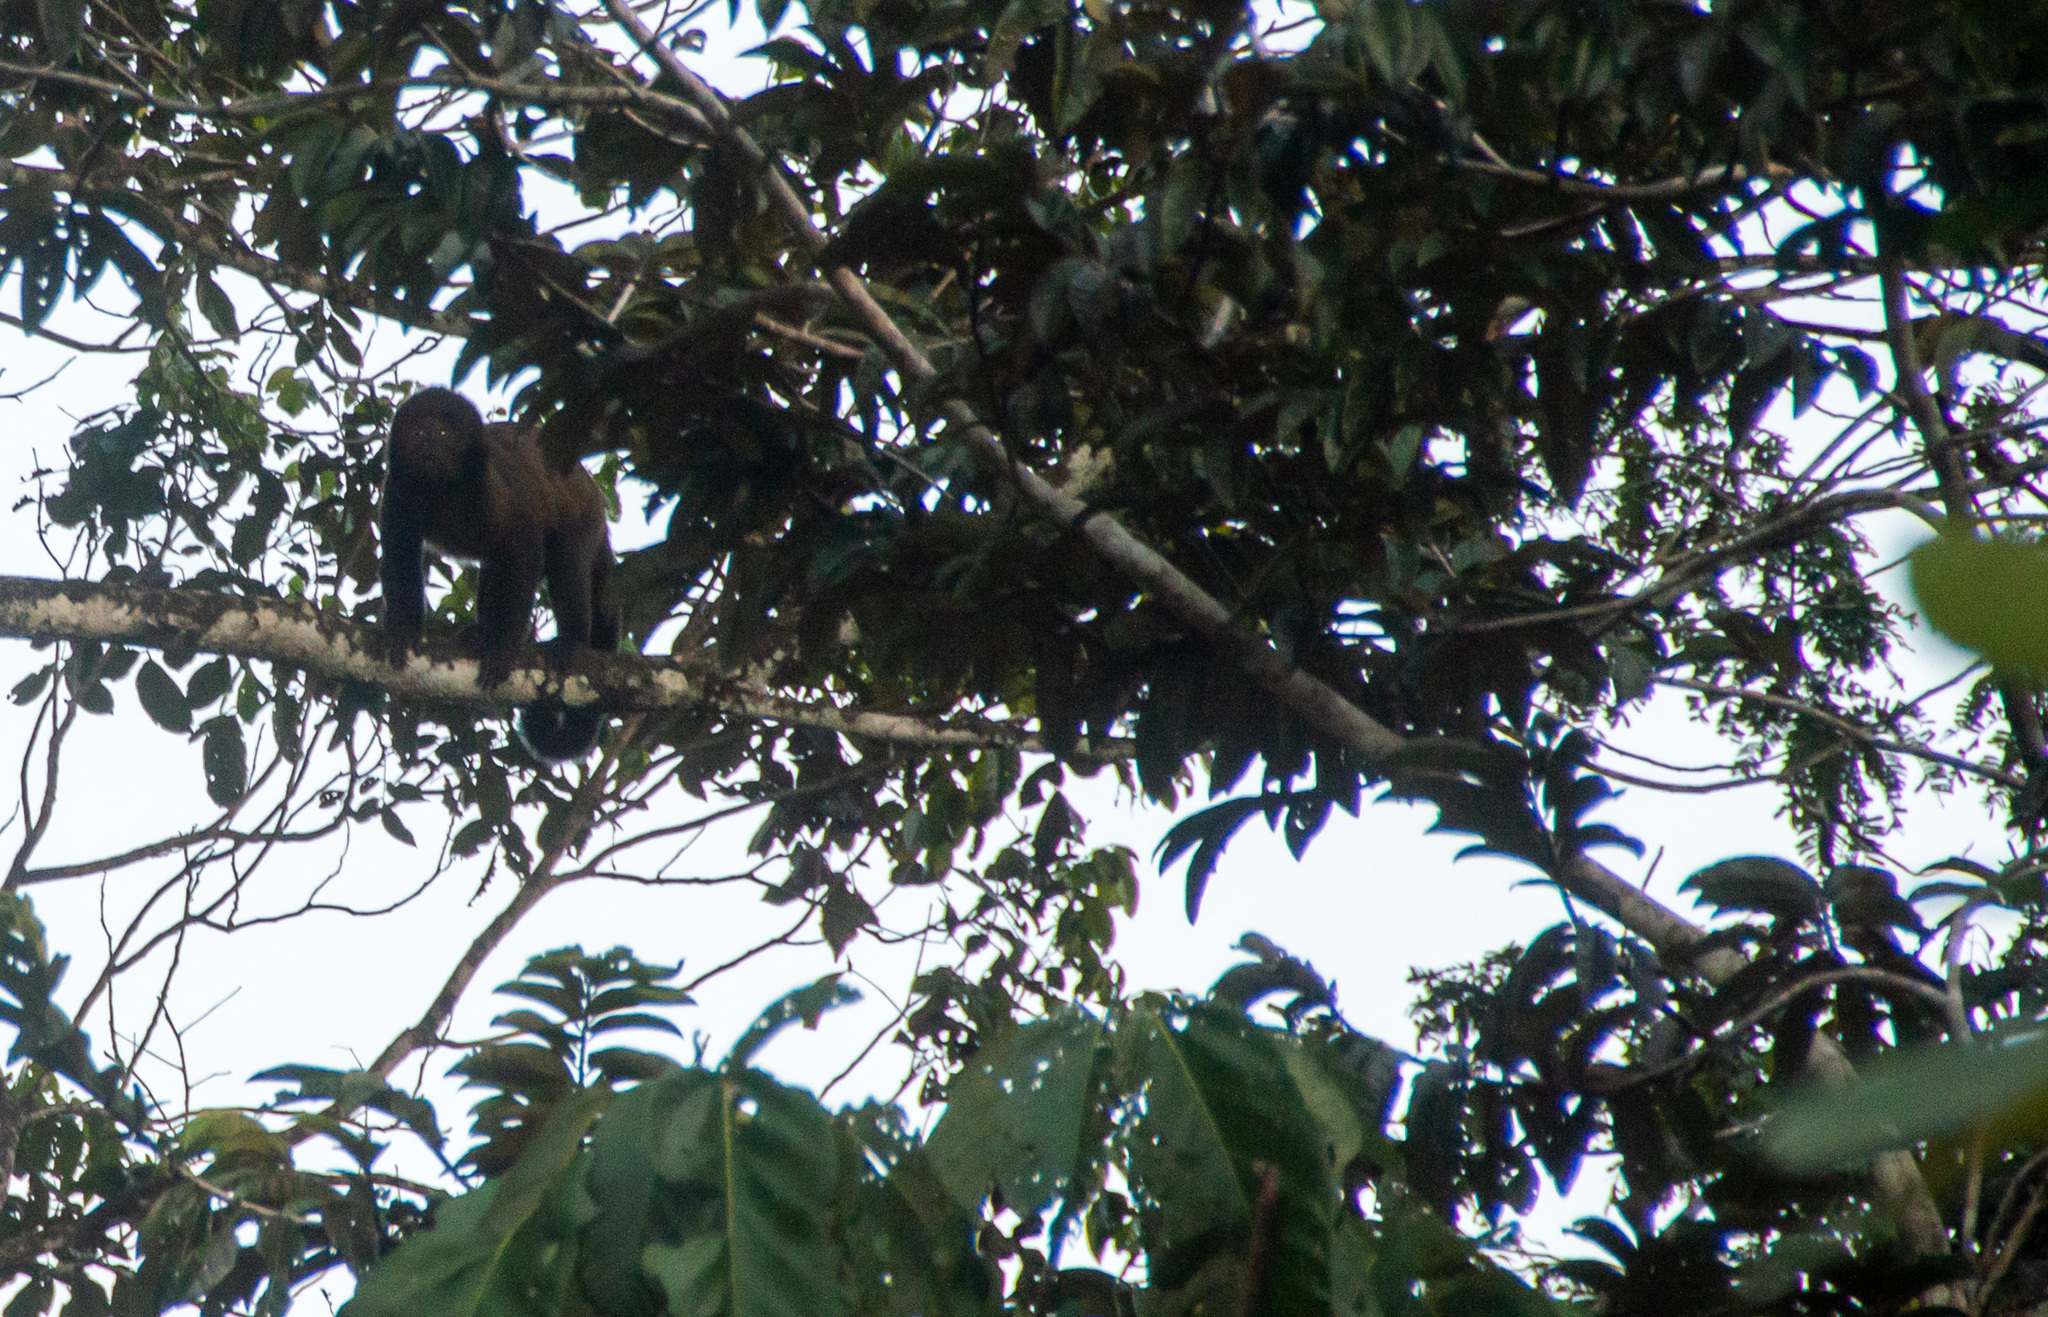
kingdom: Animalia
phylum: Chordata
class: Mammalia
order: Primates
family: Cebidae
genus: Sapajus
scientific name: Sapajus robustus
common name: Crested capuchin
